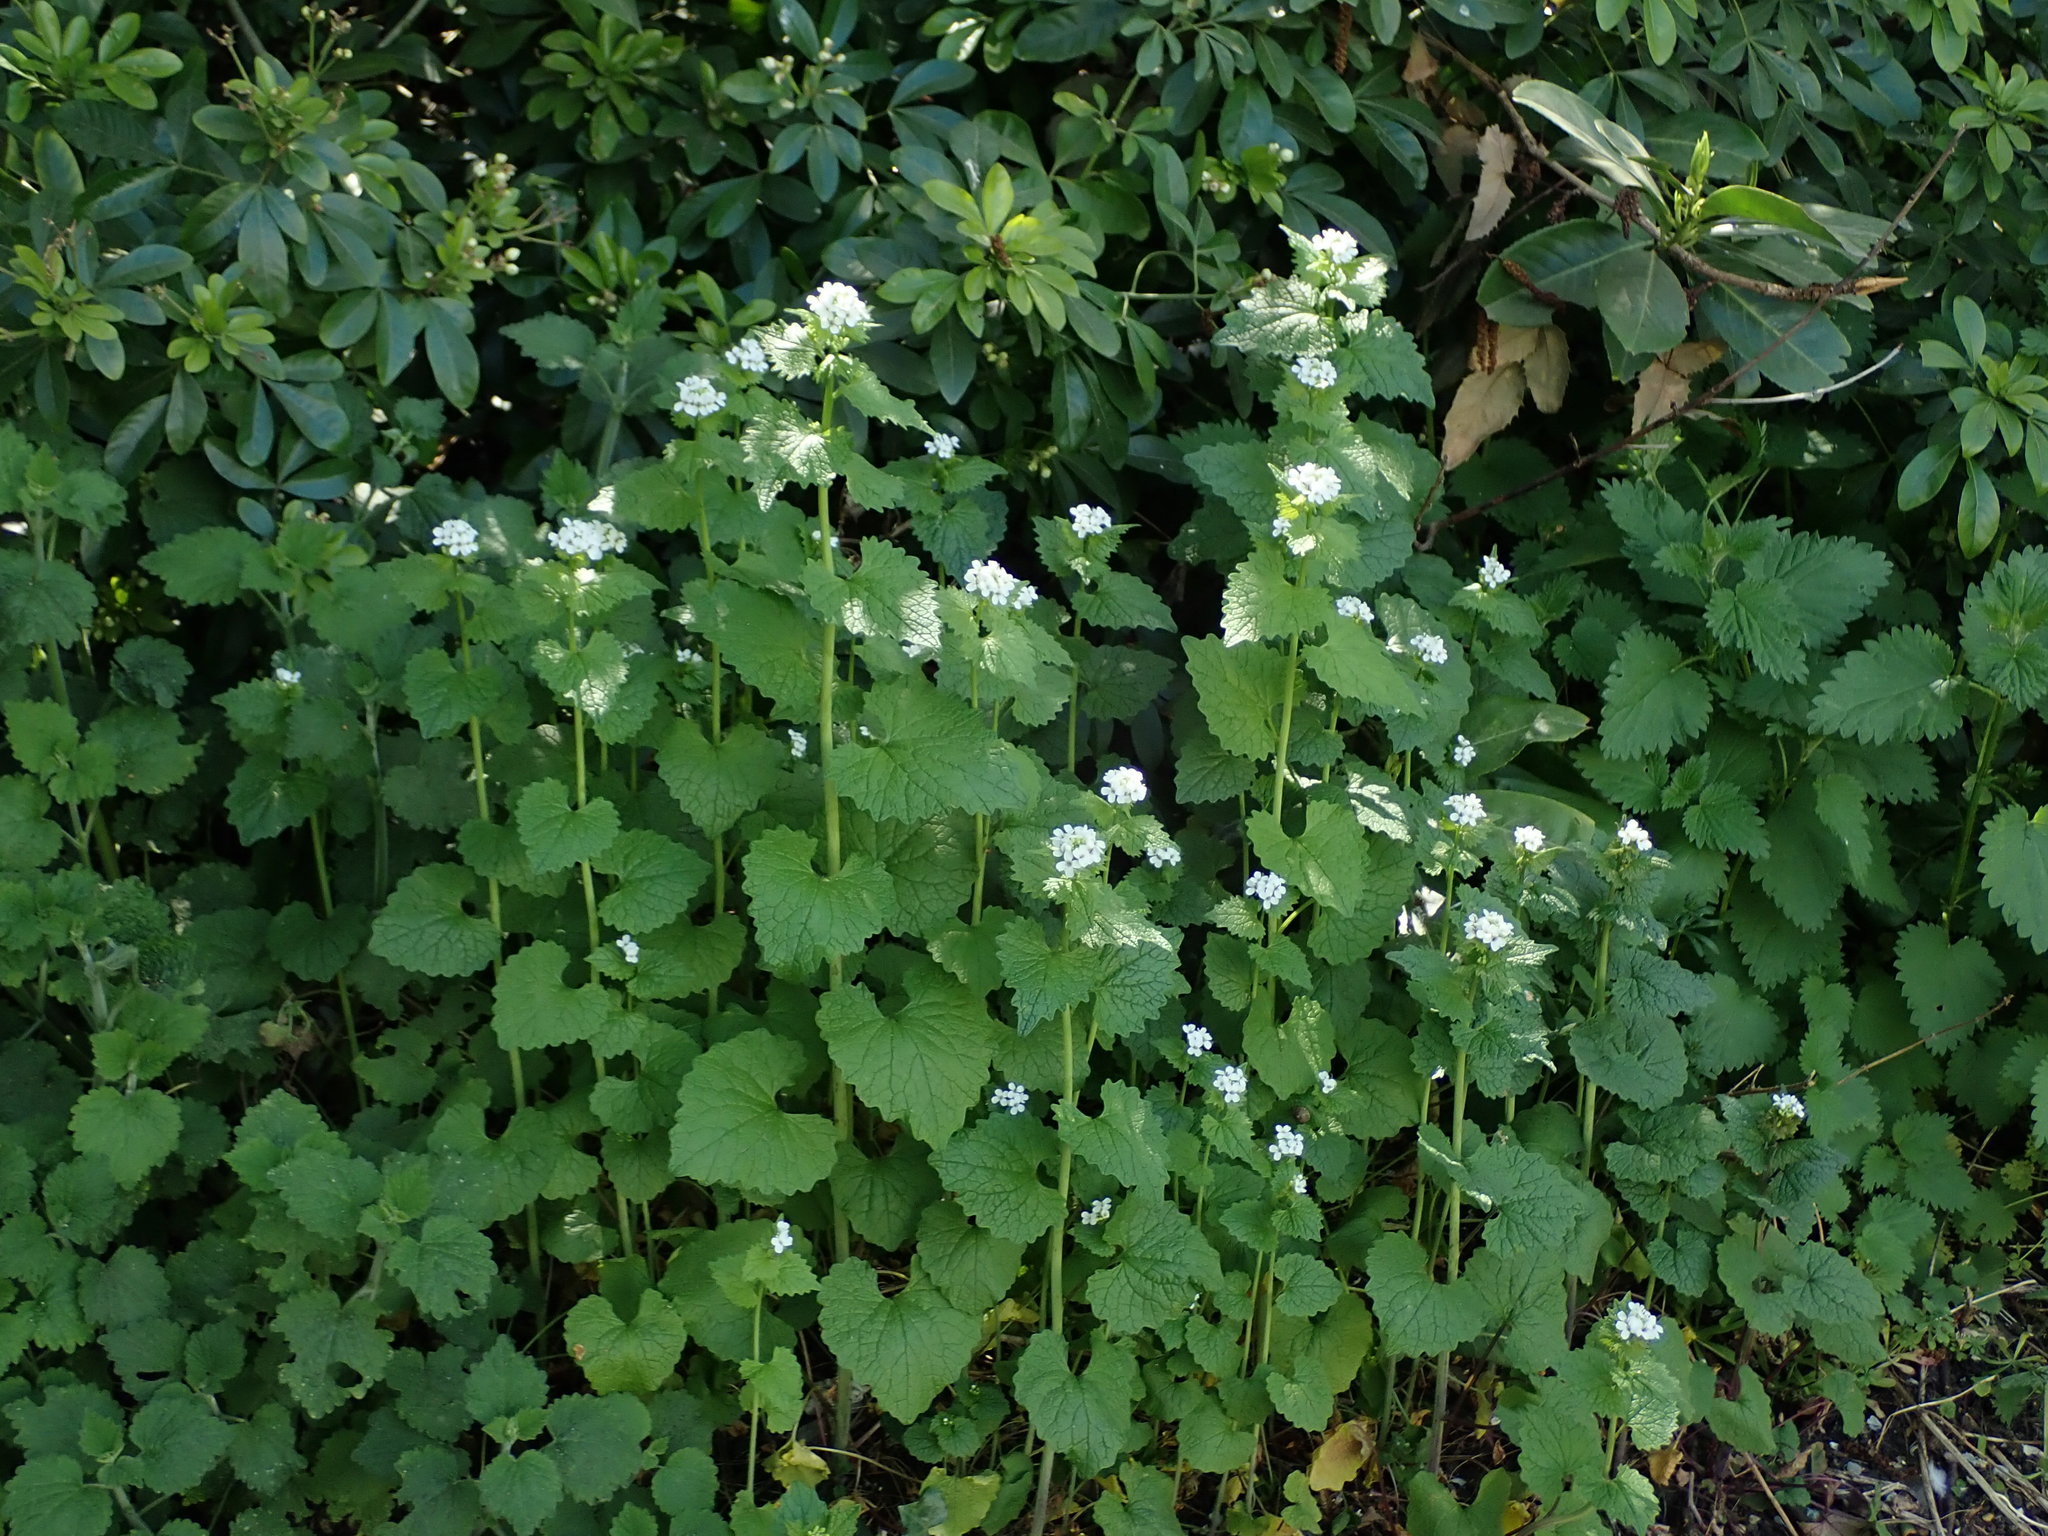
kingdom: Plantae
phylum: Tracheophyta
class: Magnoliopsida
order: Brassicales
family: Brassicaceae
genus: Alliaria
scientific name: Alliaria petiolata
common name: Garlic mustard
